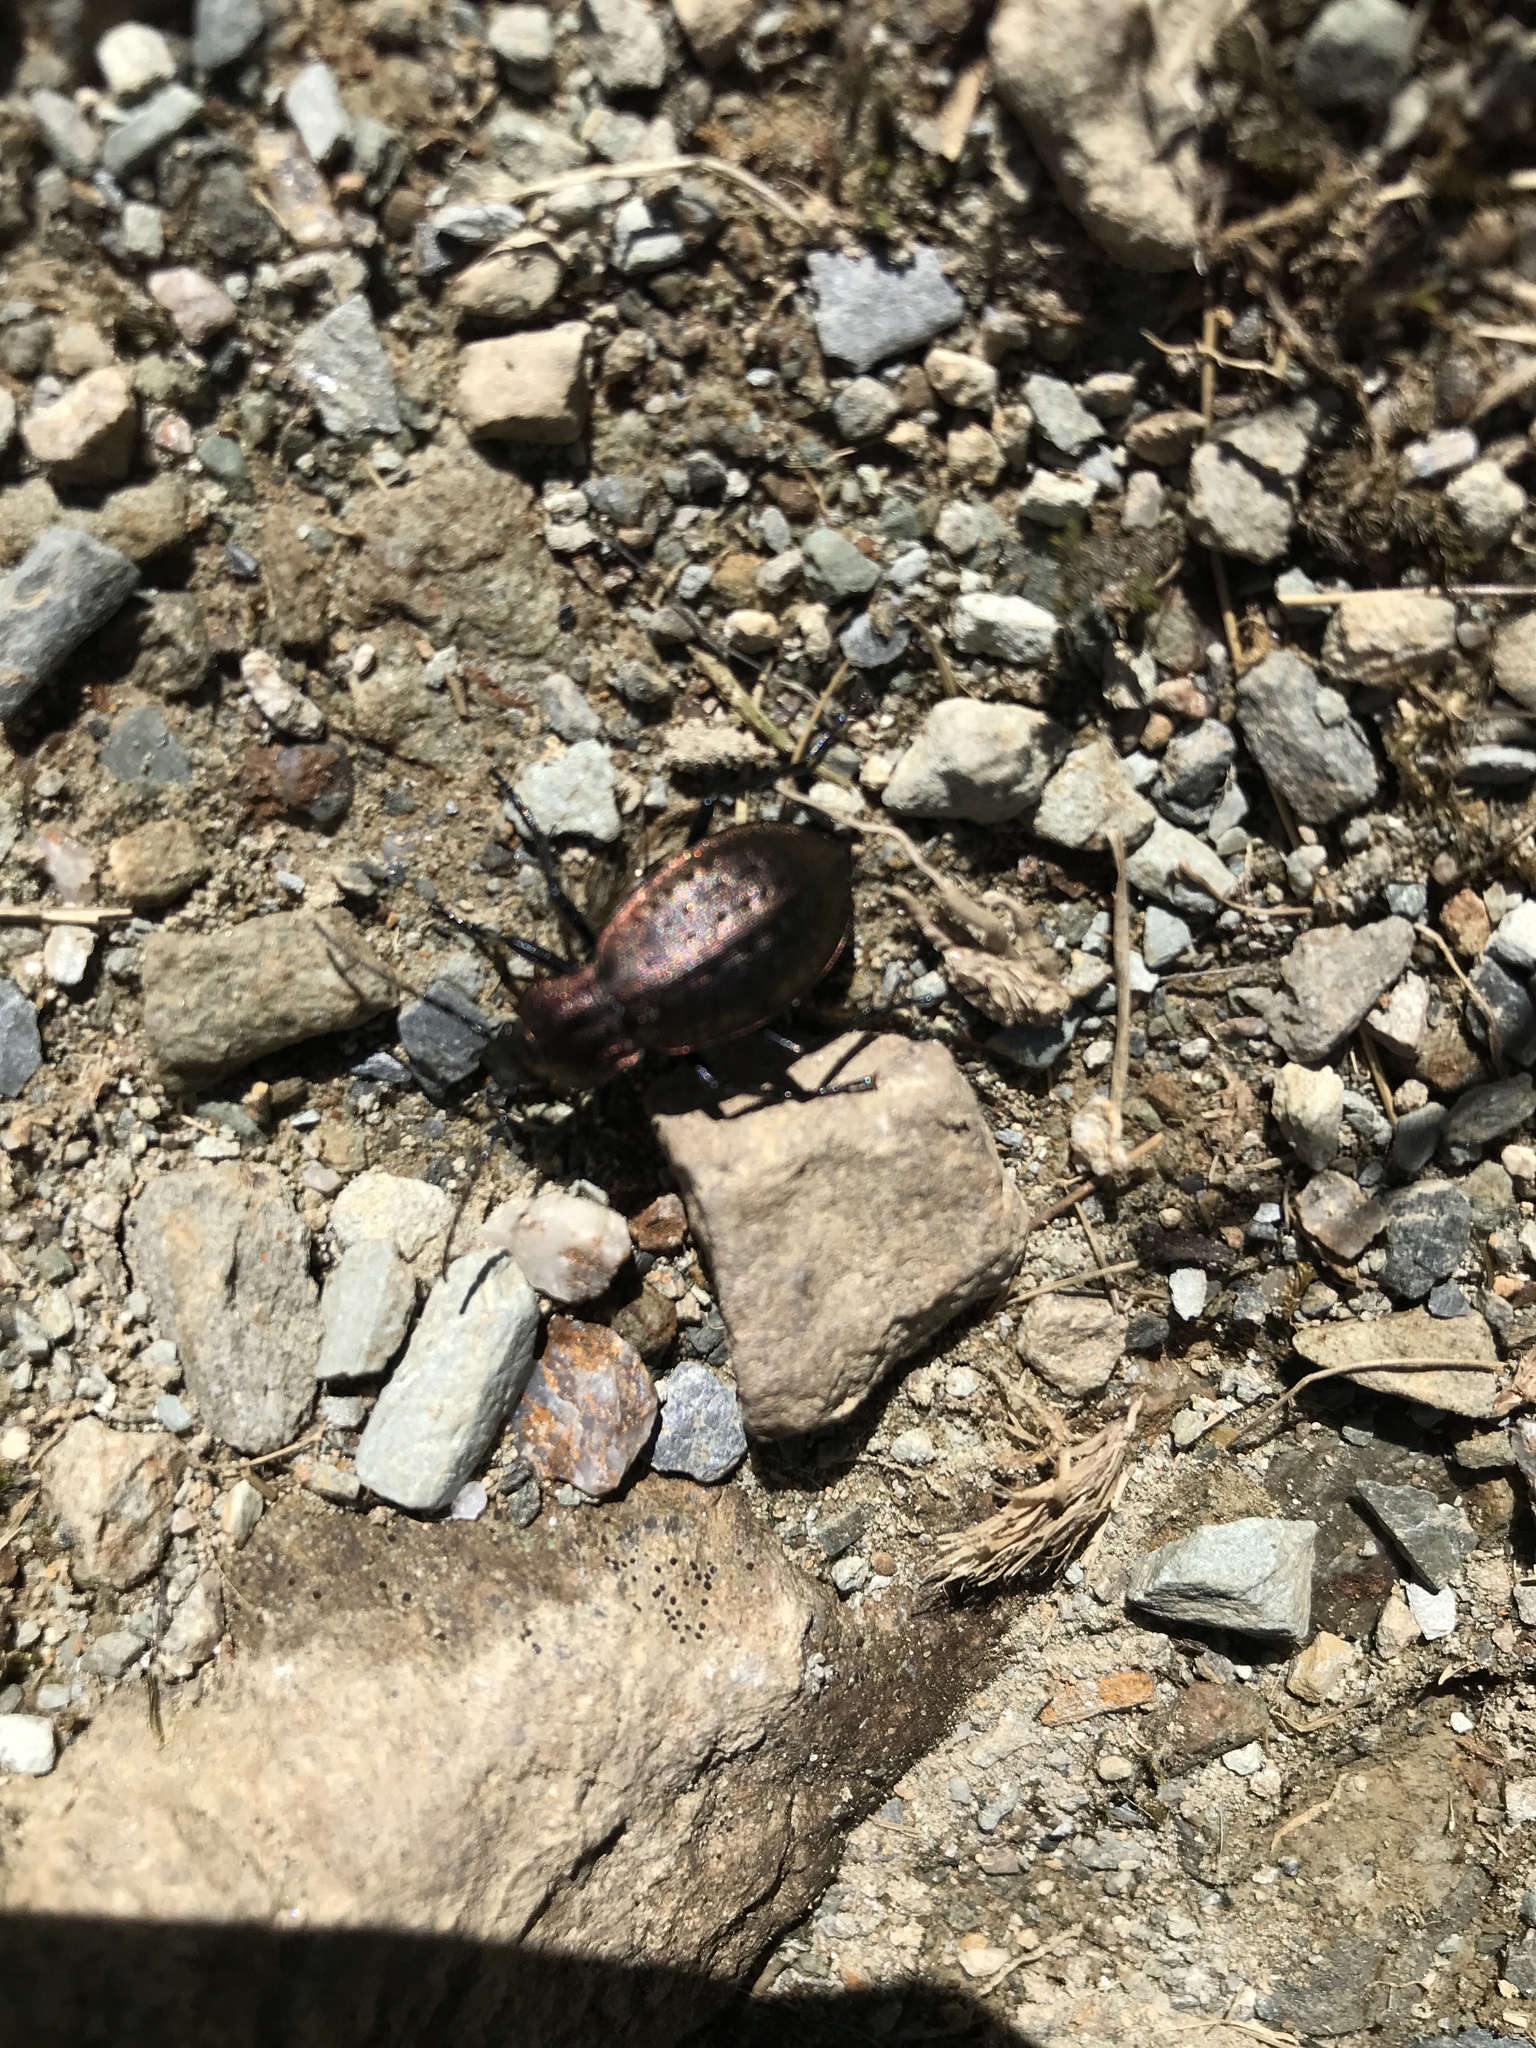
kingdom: Animalia
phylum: Arthropoda
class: Insecta
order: Coleoptera
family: Carabidae
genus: Carabus
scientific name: Carabus sylvestris
